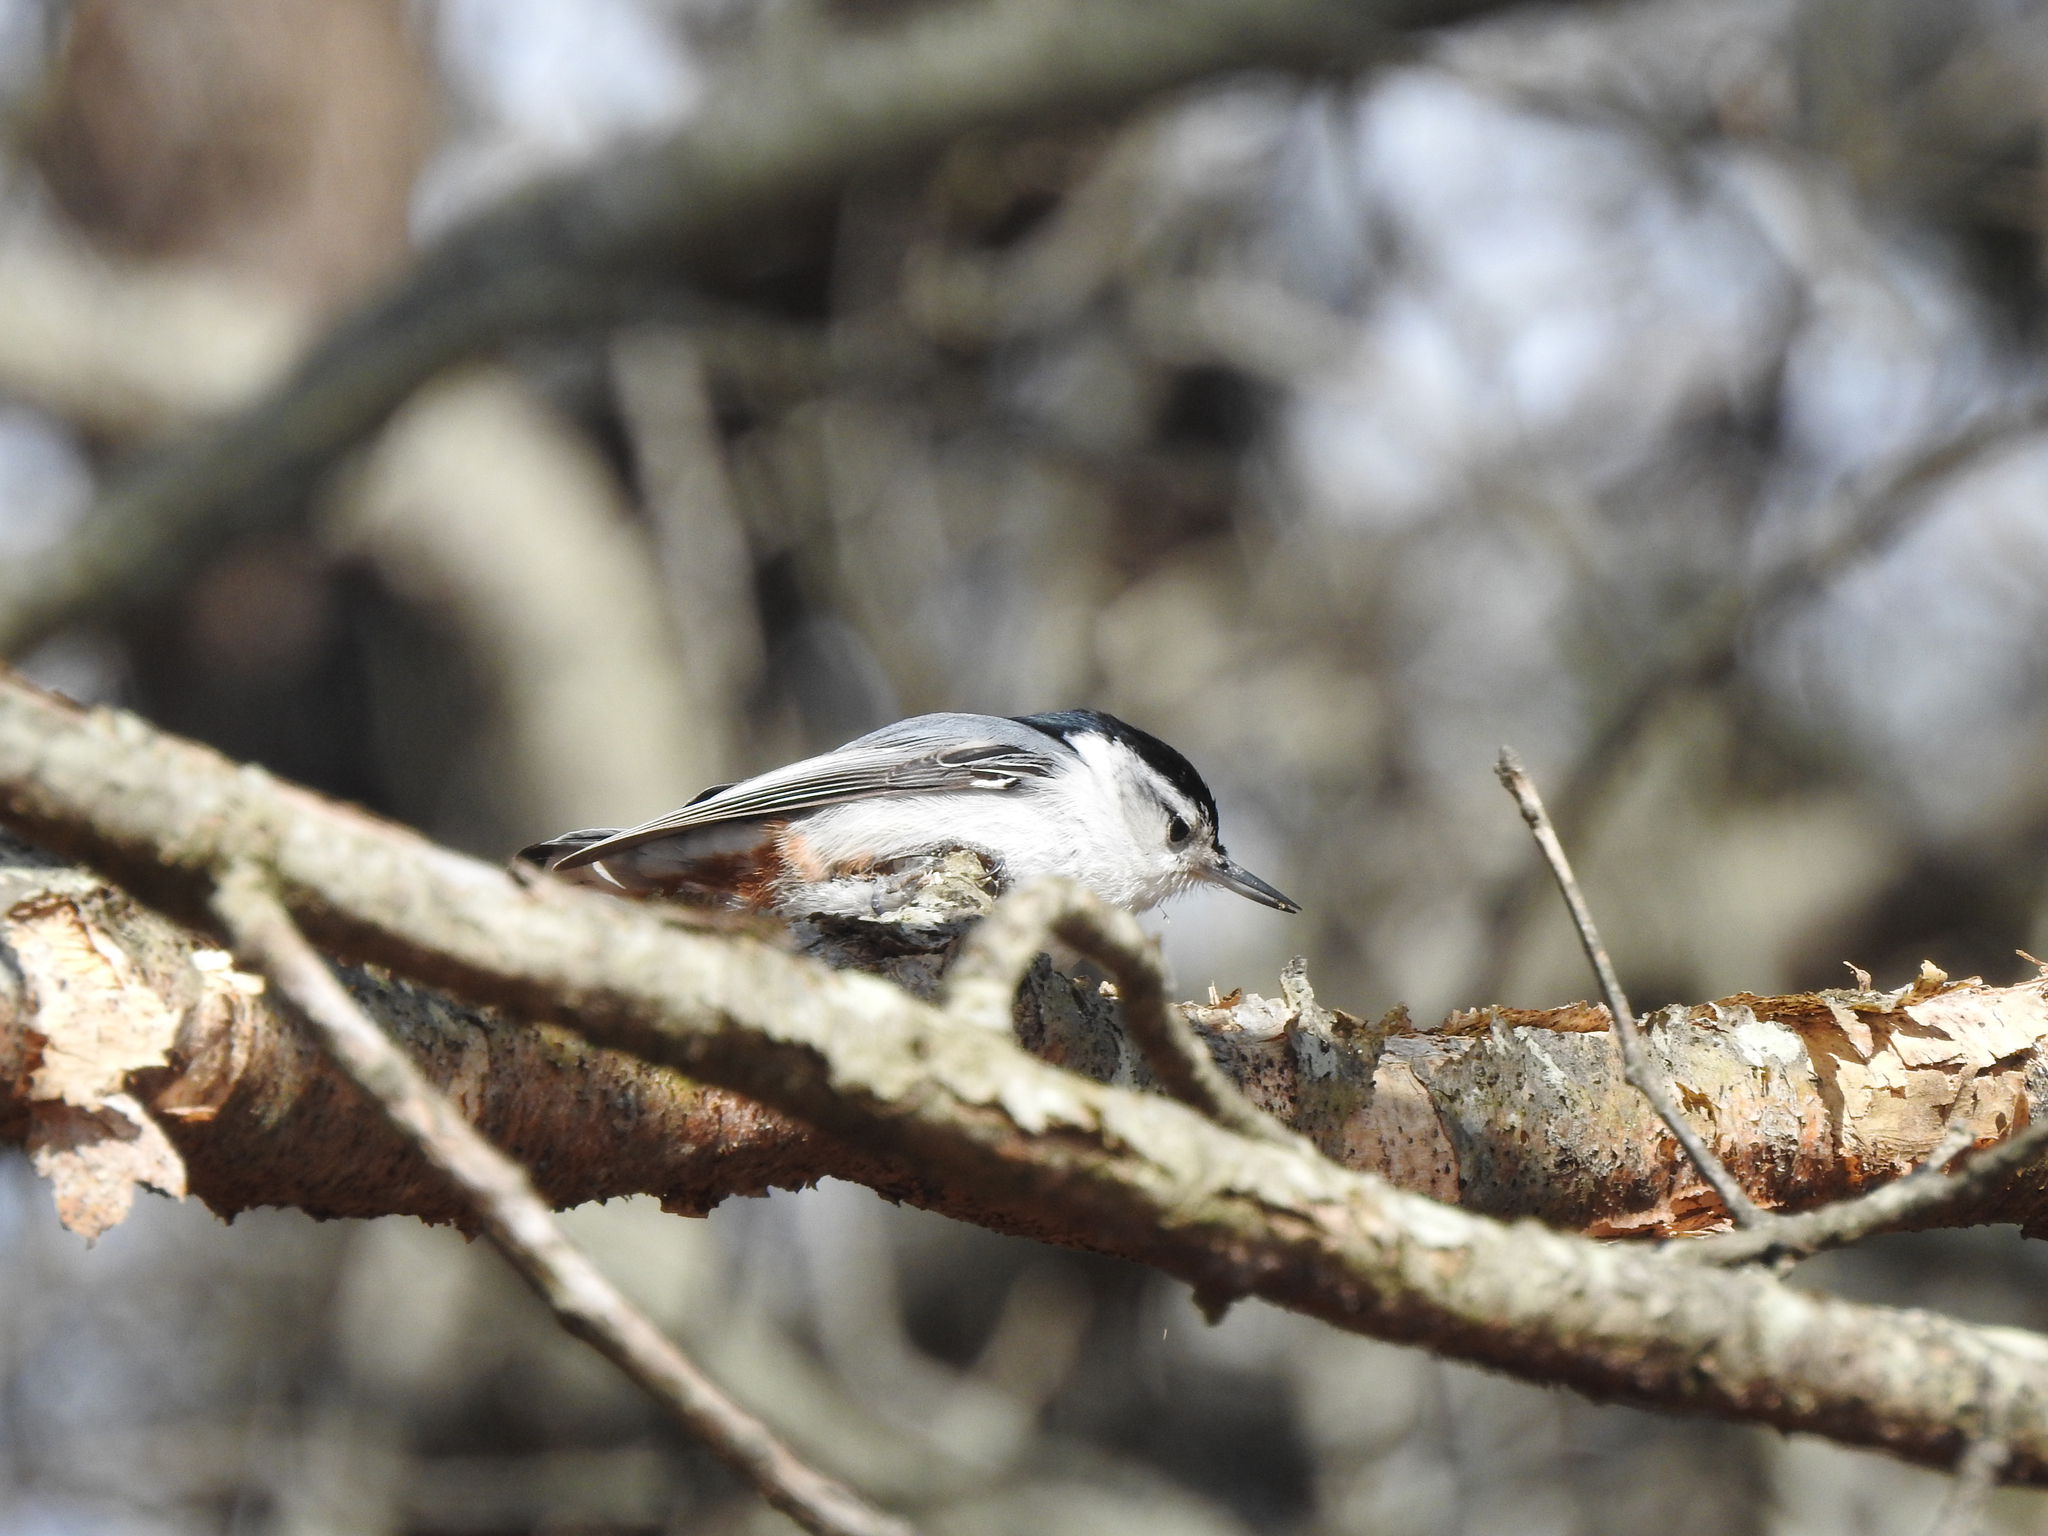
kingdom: Animalia
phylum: Chordata
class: Aves
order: Passeriformes
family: Sittidae
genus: Sitta
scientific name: Sitta carolinensis
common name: White-breasted nuthatch
